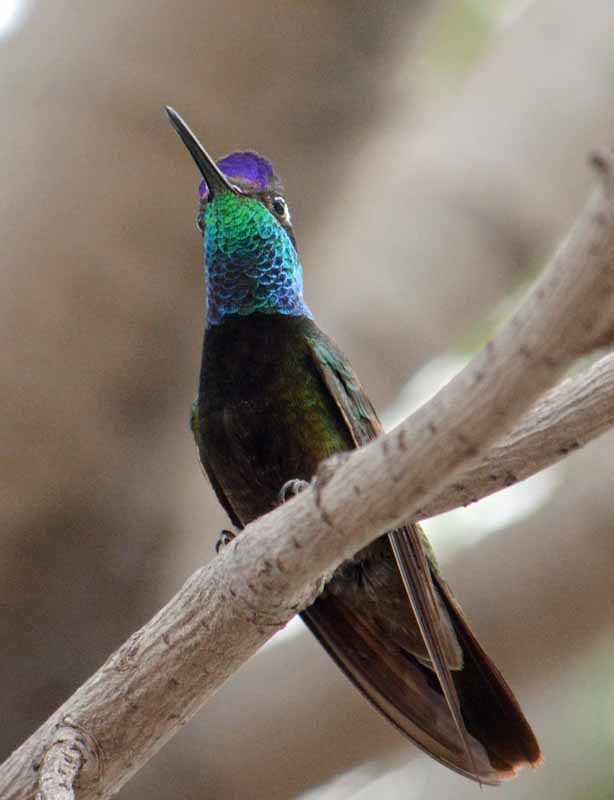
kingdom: Animalia
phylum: Chordata
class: Aves
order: Apodiformes
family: Trochilidae
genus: Eugenes
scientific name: Eugenes fulgens
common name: Magnificent hummingbird
